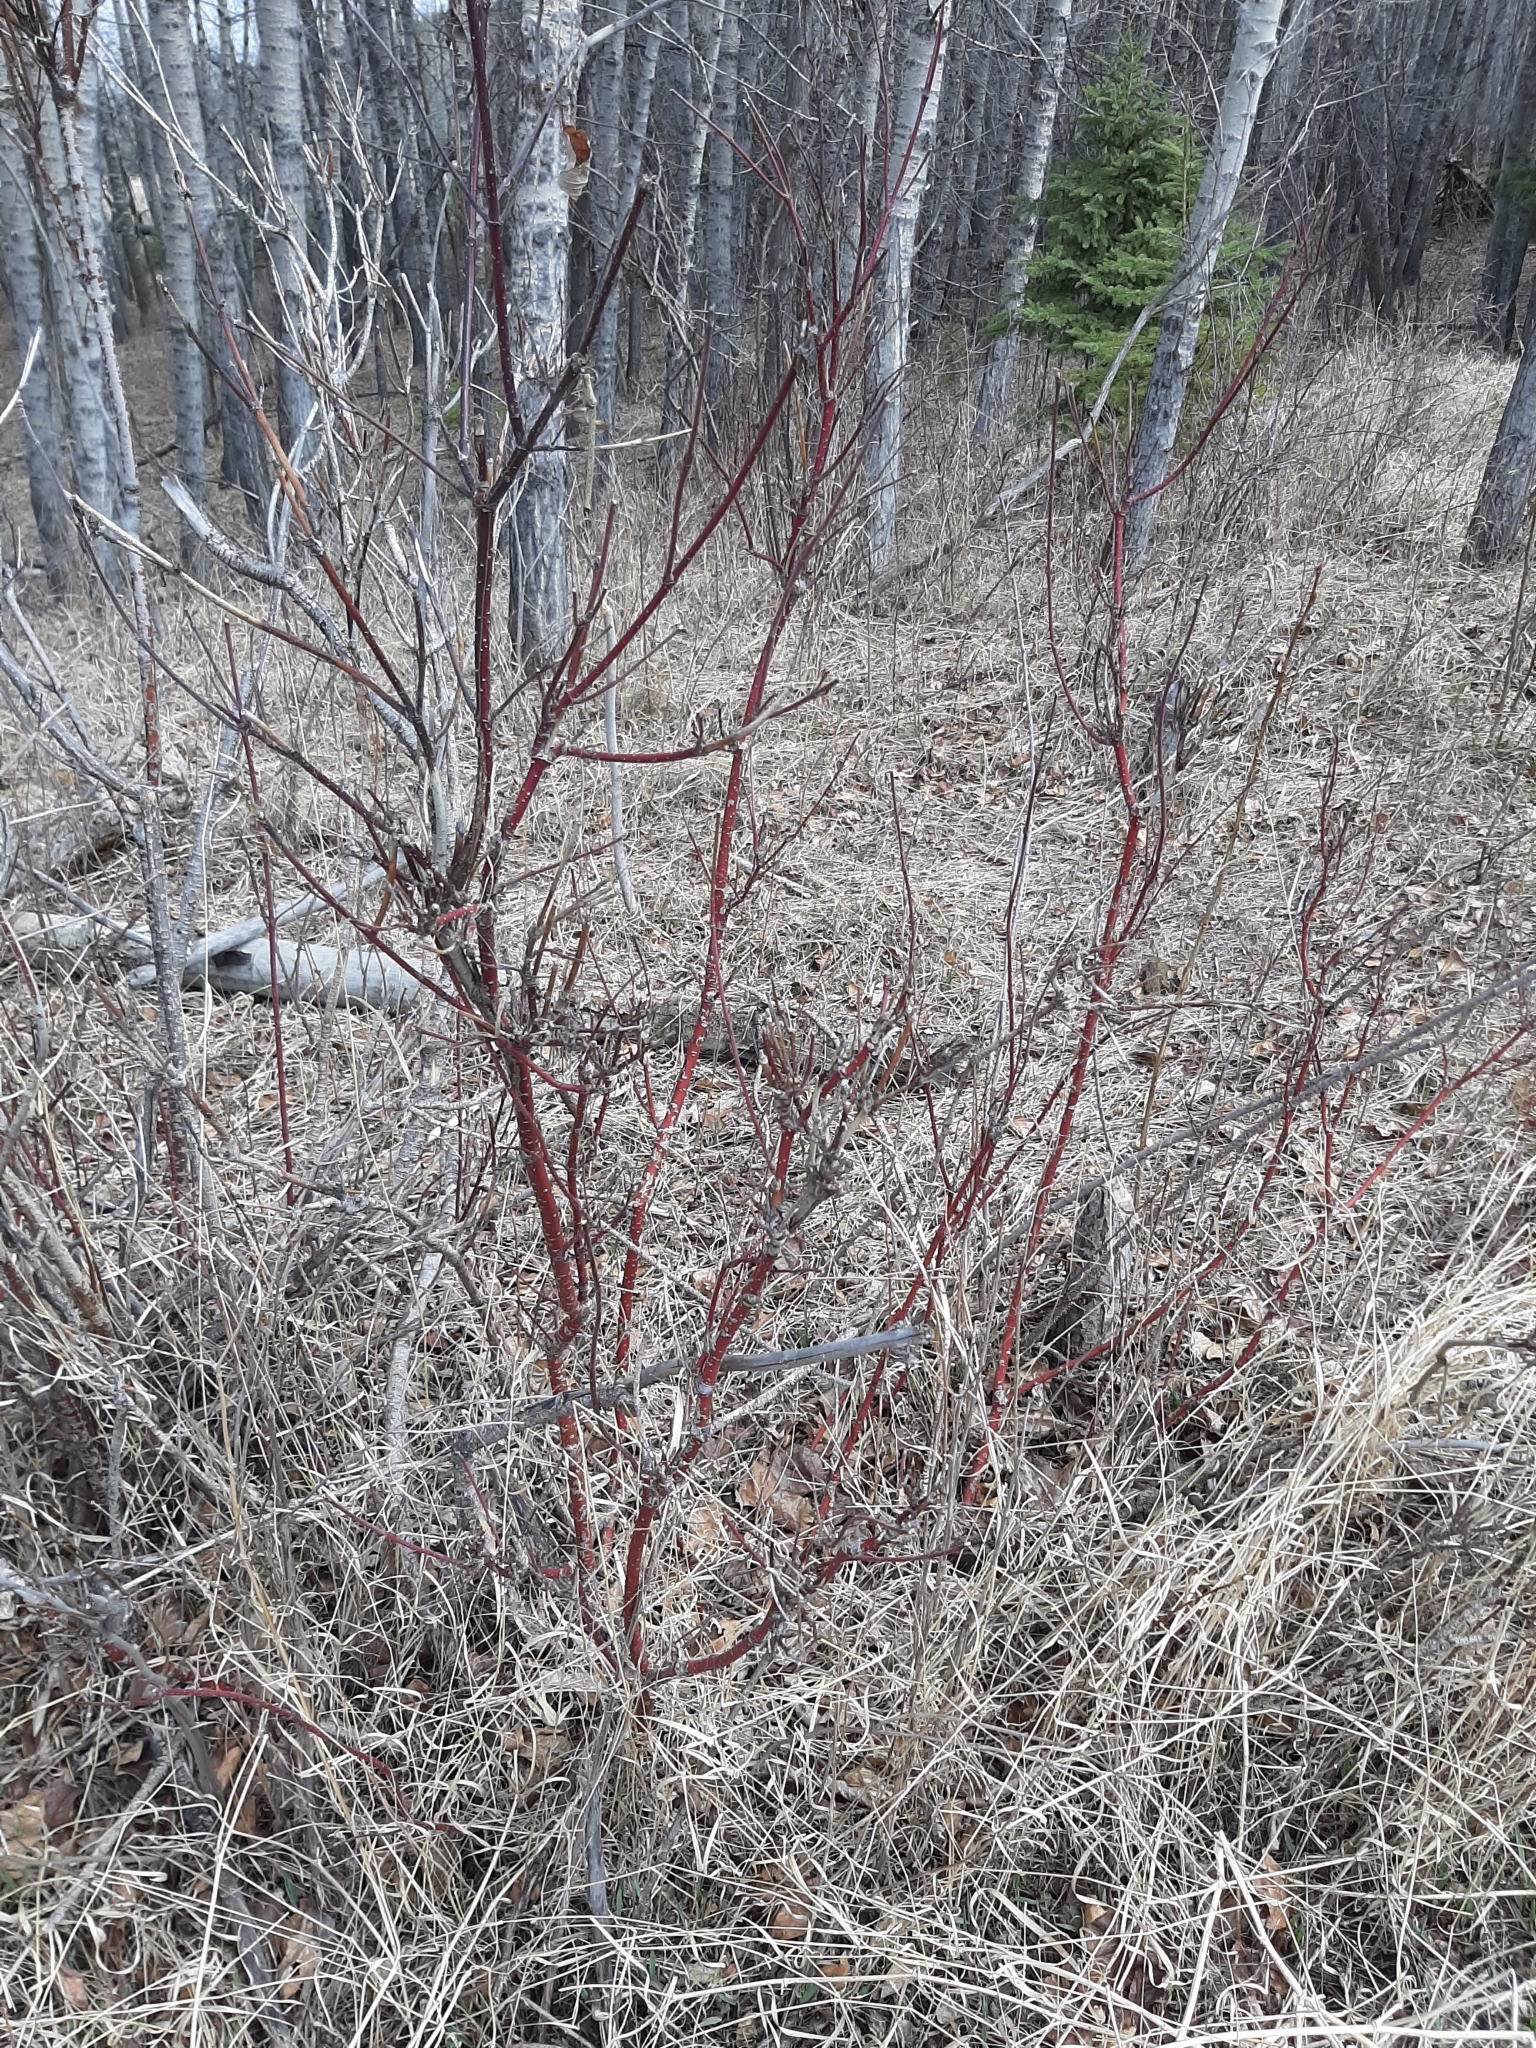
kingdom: Plantae
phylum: Tracheophyta
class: Magnoliopsida
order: Cornales
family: Cornaceae
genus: Cornus
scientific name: Cornus sericea
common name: Red-osier dogwood
